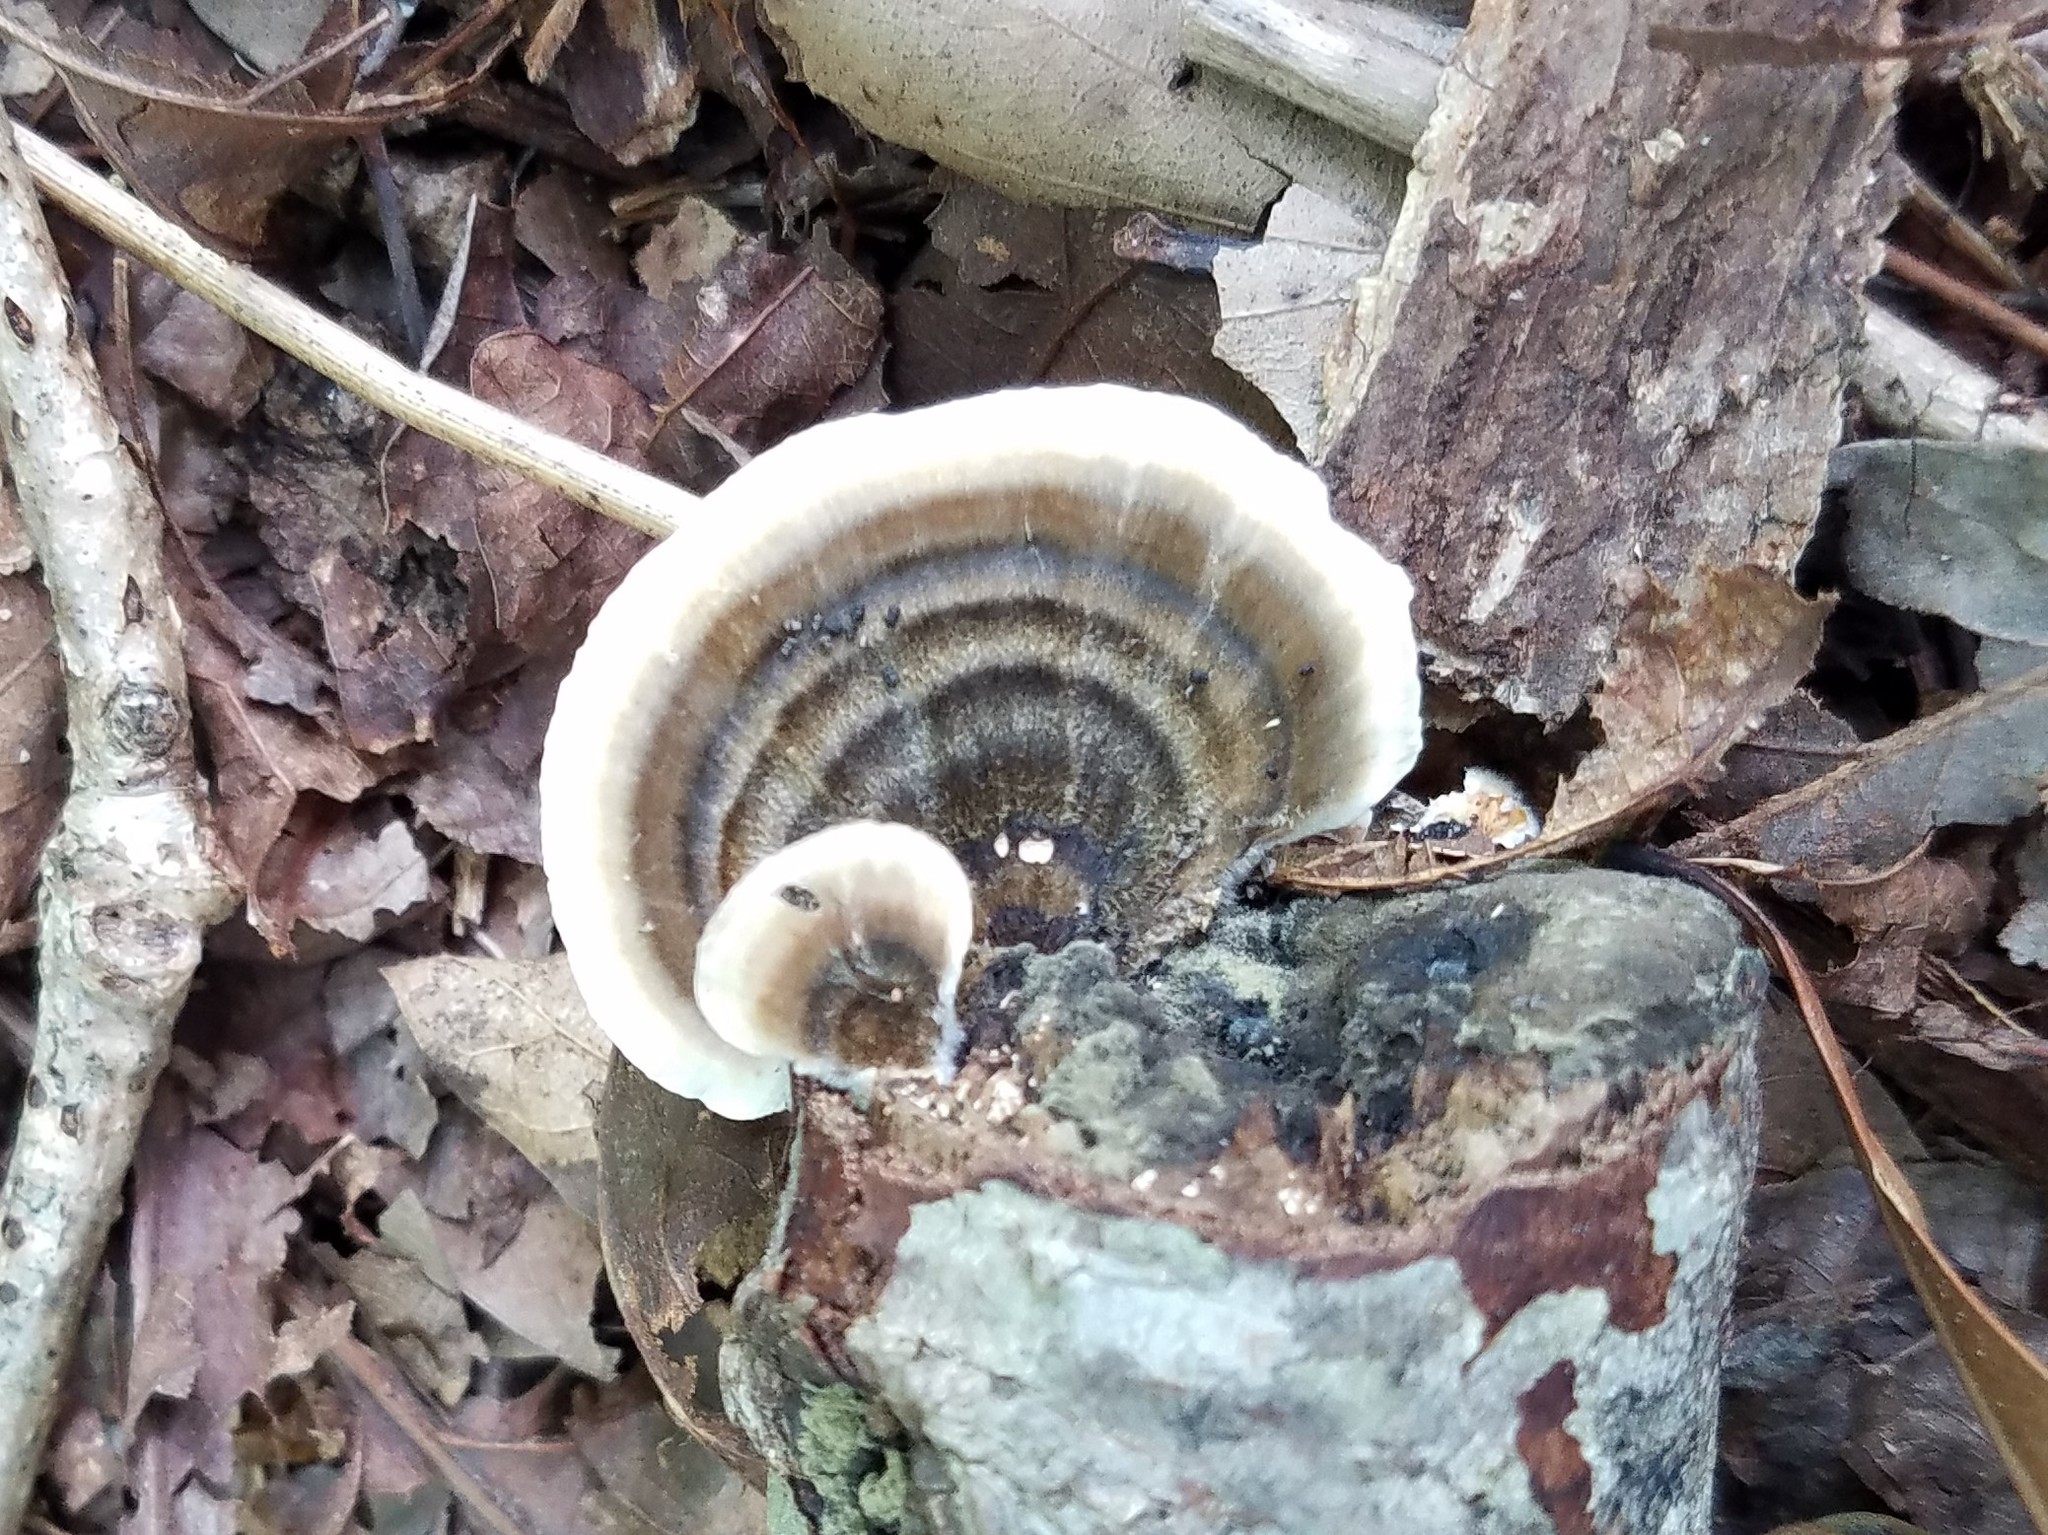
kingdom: Fungi
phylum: Basidiomycota
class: Agaricomycetes
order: Polyporales
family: Polyporaceae
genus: Trametes
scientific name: Trametes versicolor
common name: Turkeytail
